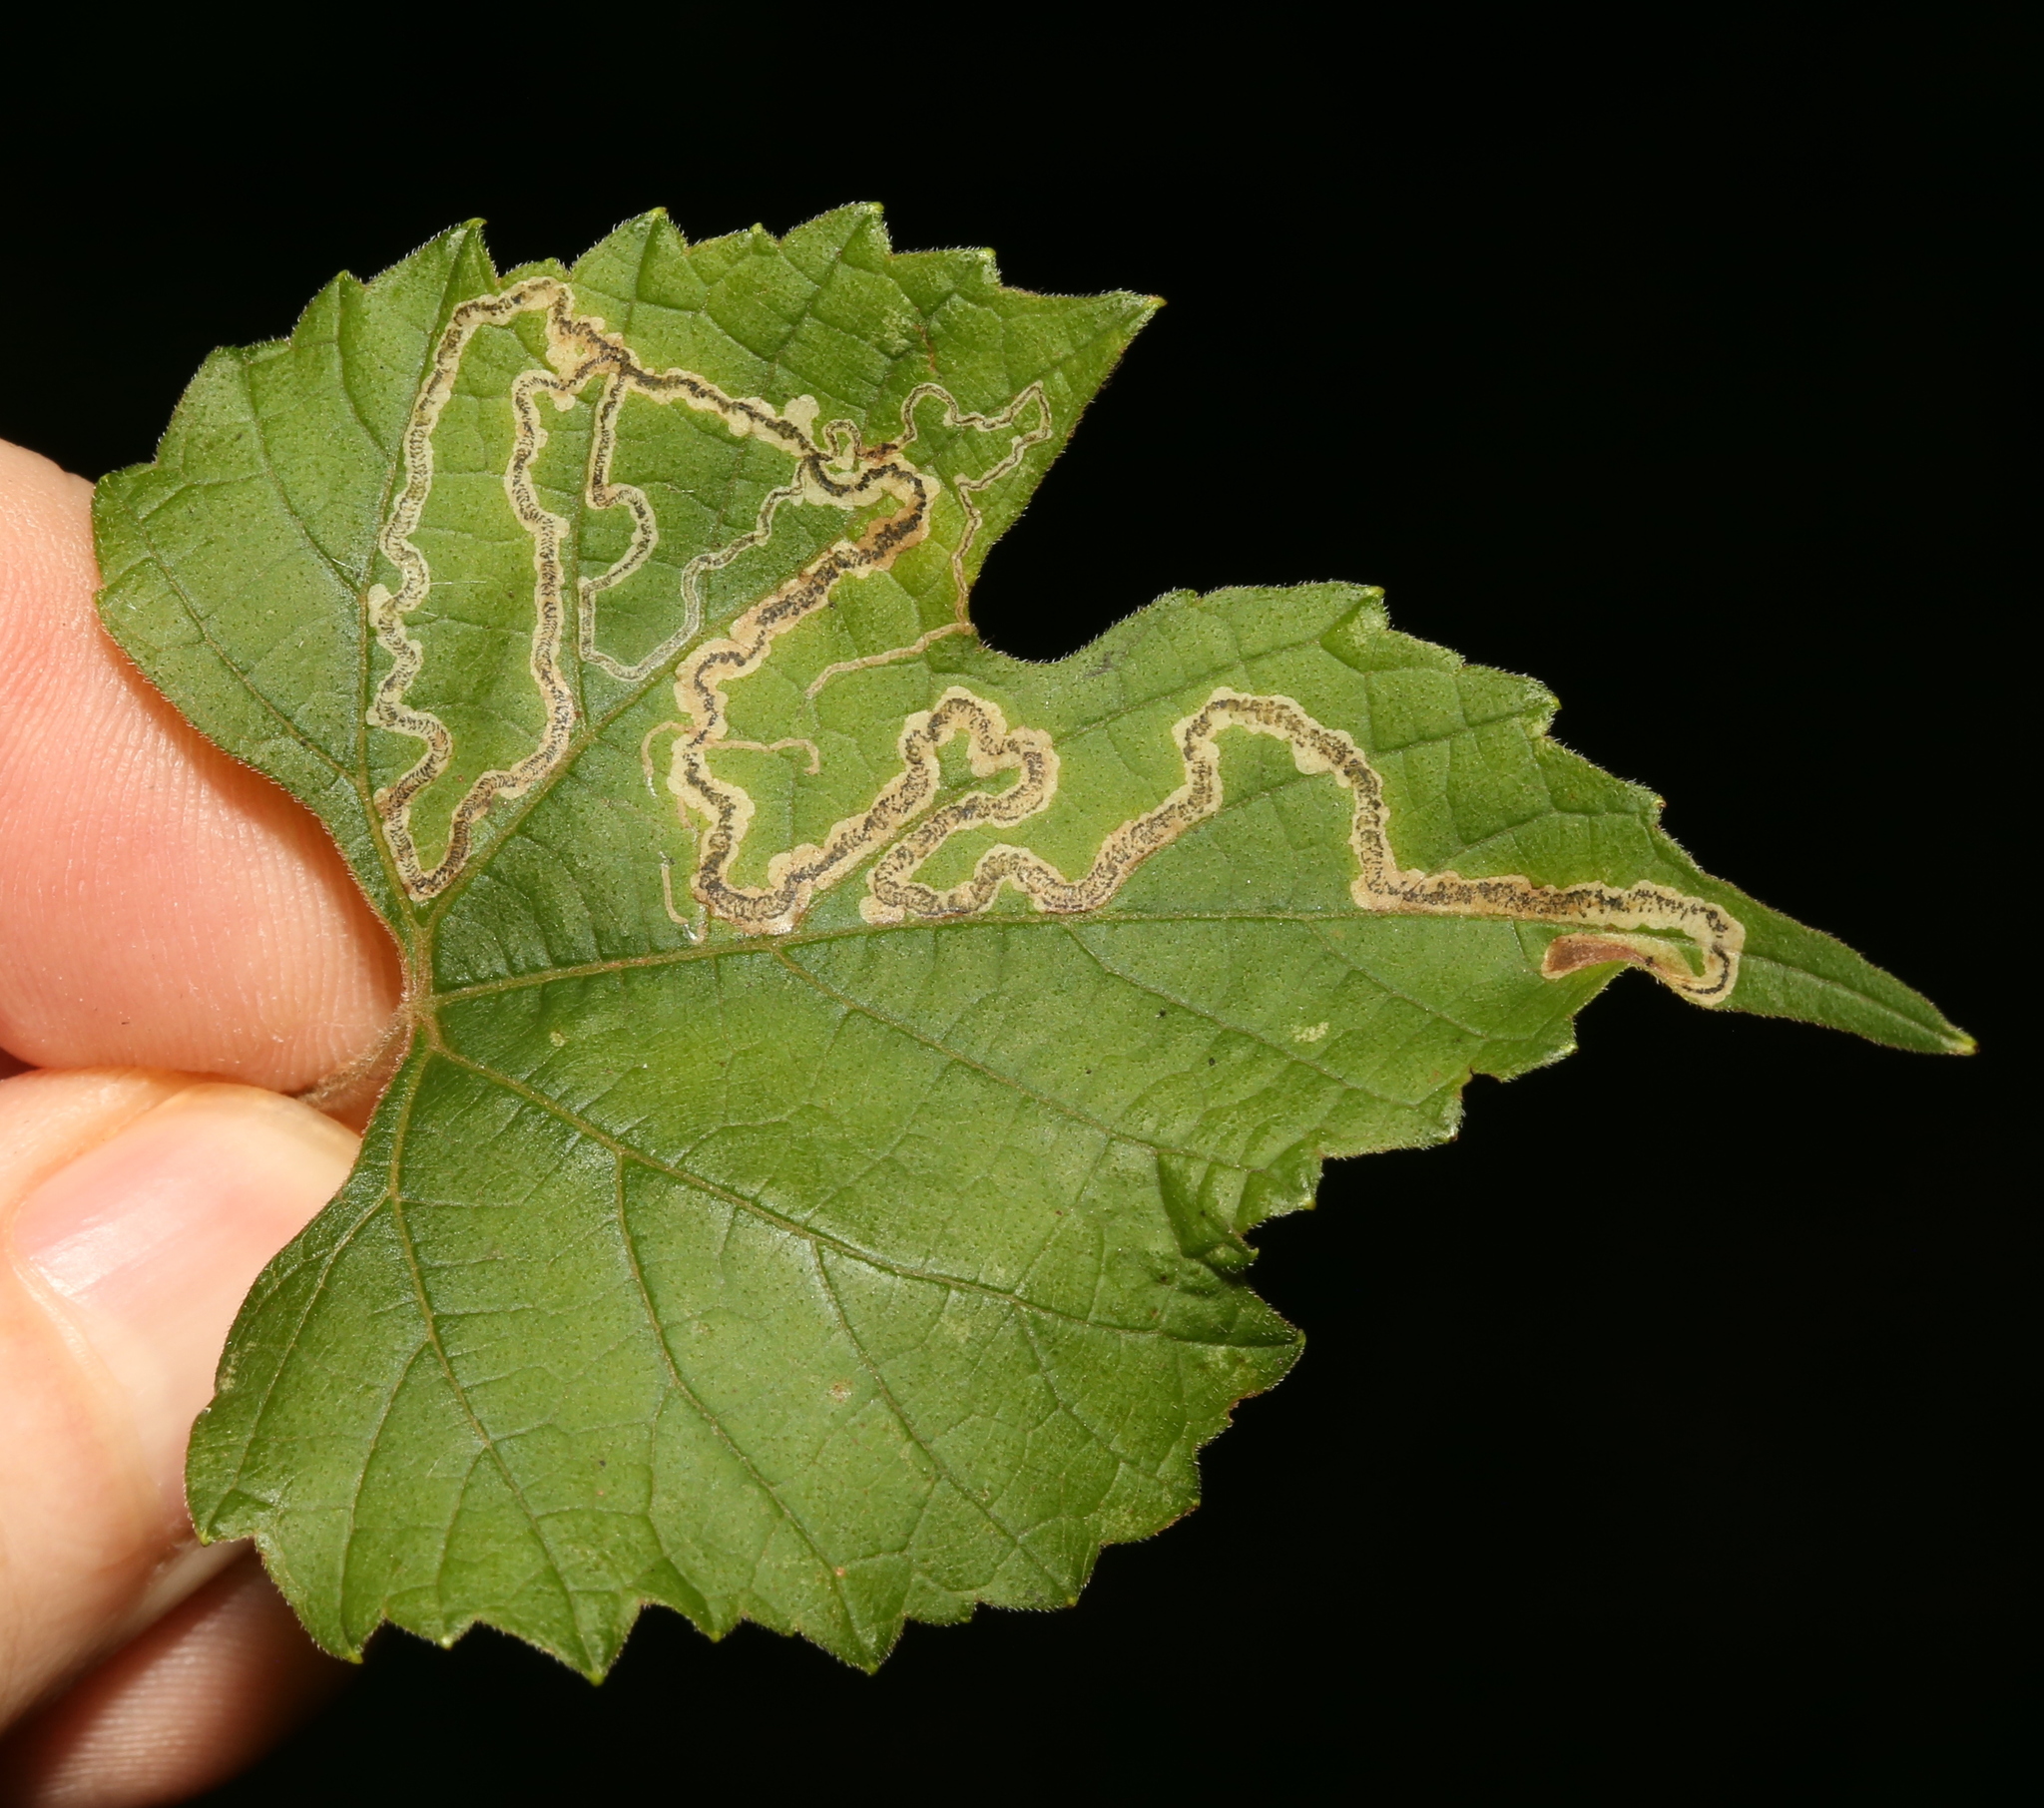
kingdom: Animalia
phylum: Arthropoda
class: Insecta
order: Lepidoptera
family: Gracillariidae
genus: Phyllocnistis
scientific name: Phyllocnistis vitifoliella
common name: Grape leaf-miner moth
